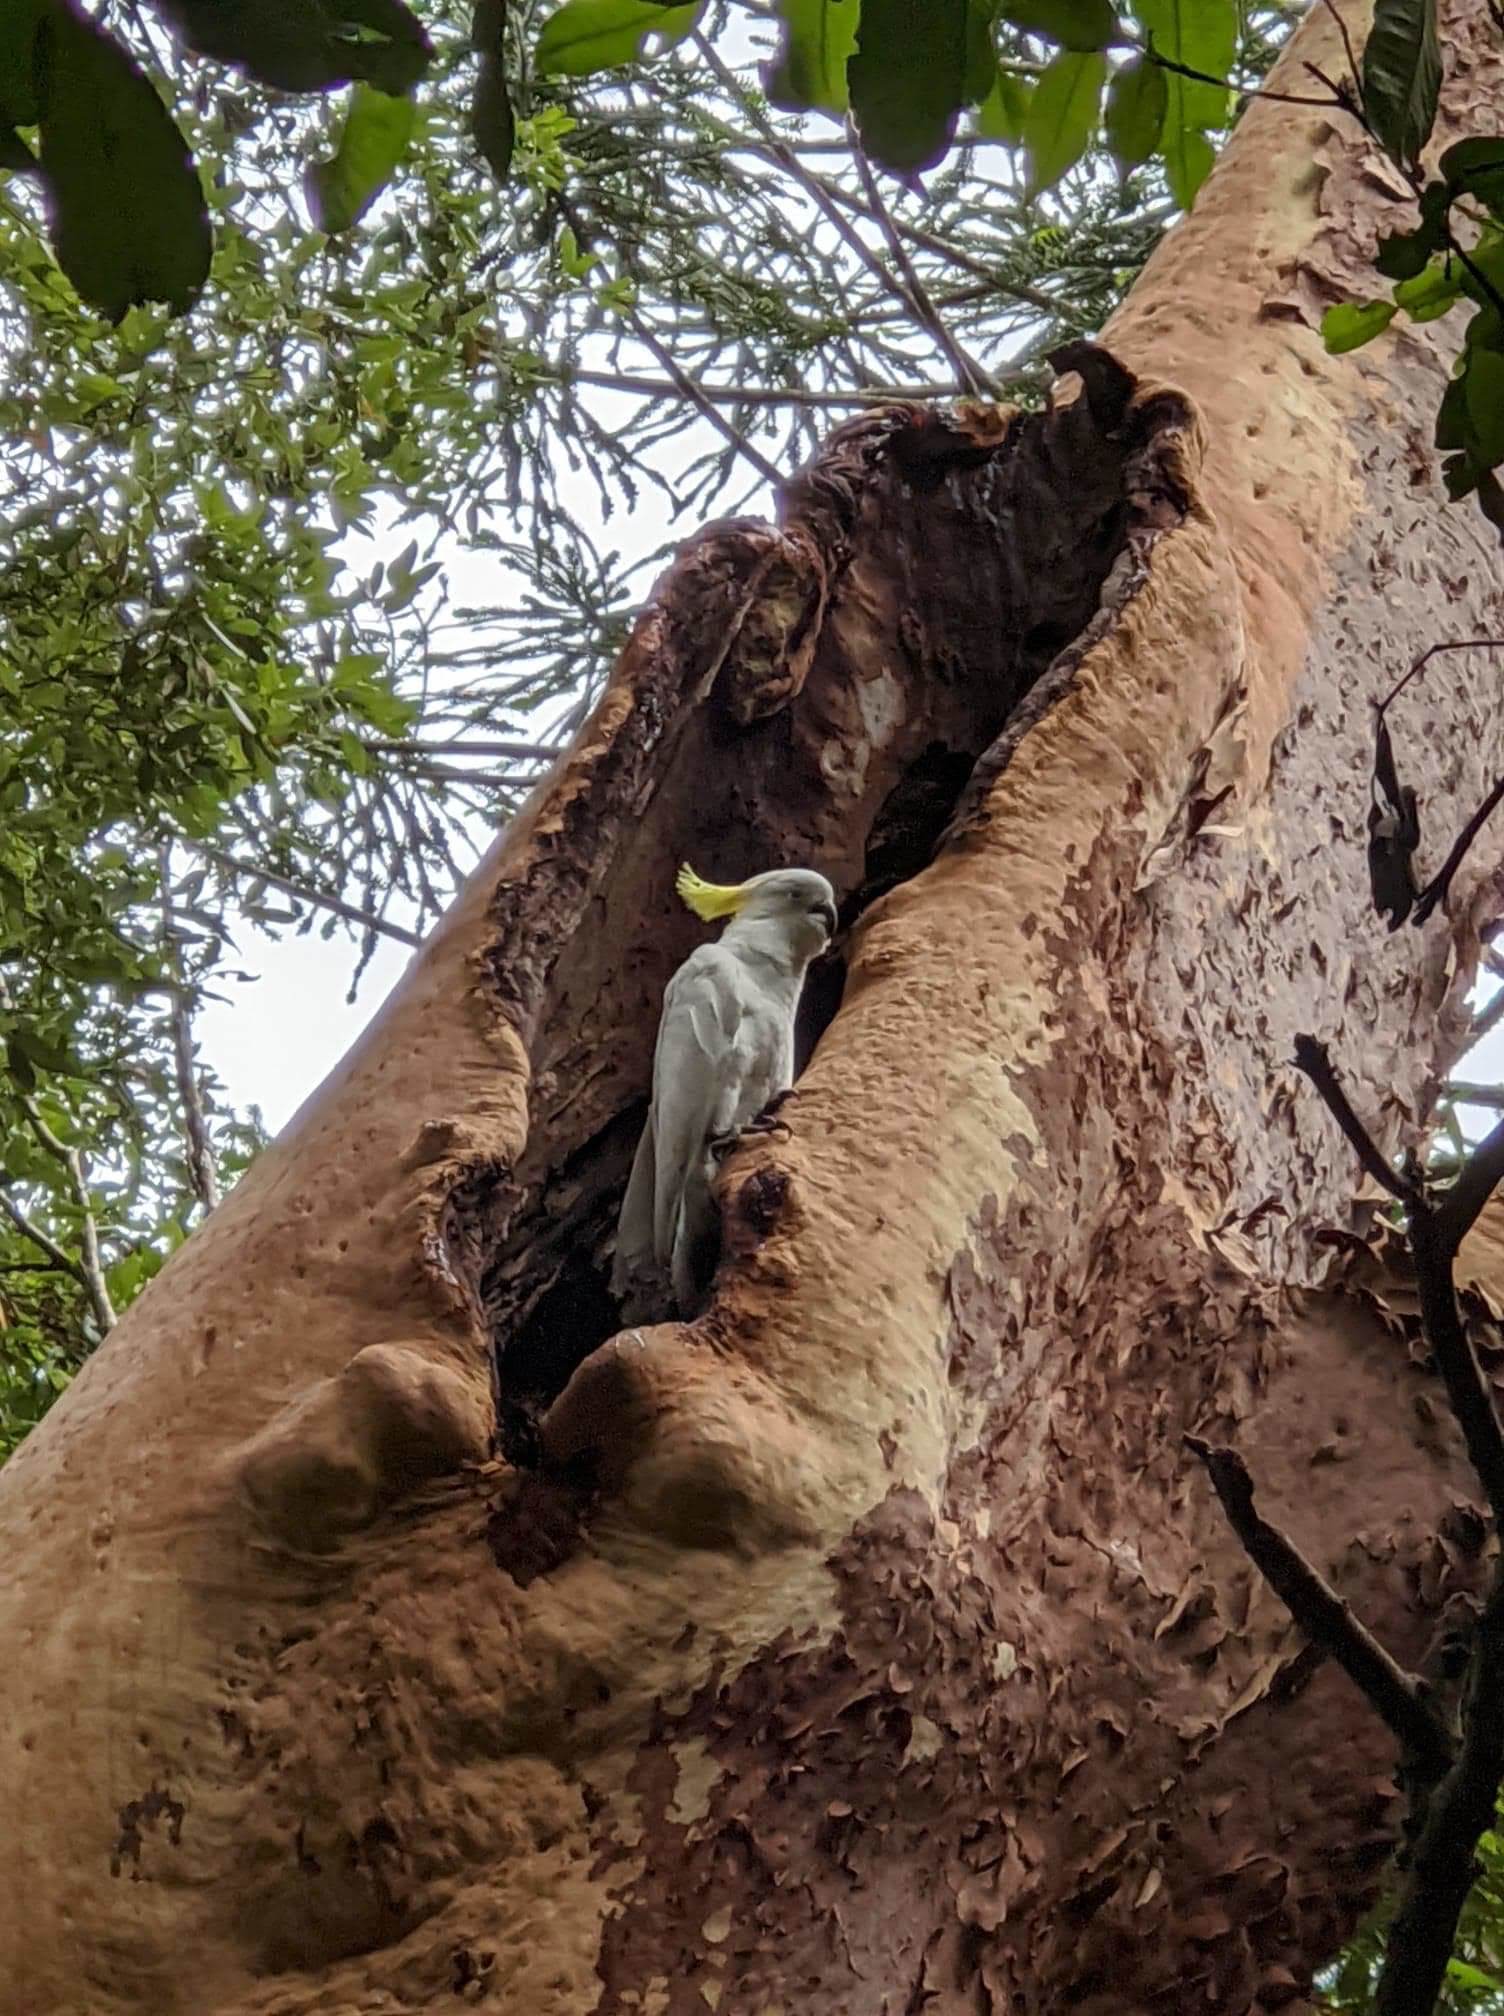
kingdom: Animalia
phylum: Chordata
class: Aves
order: Psittaciformes
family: Psittacidae
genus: Cacatua
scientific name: Cacatua galerita
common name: Sulphur-crested cockatoo
